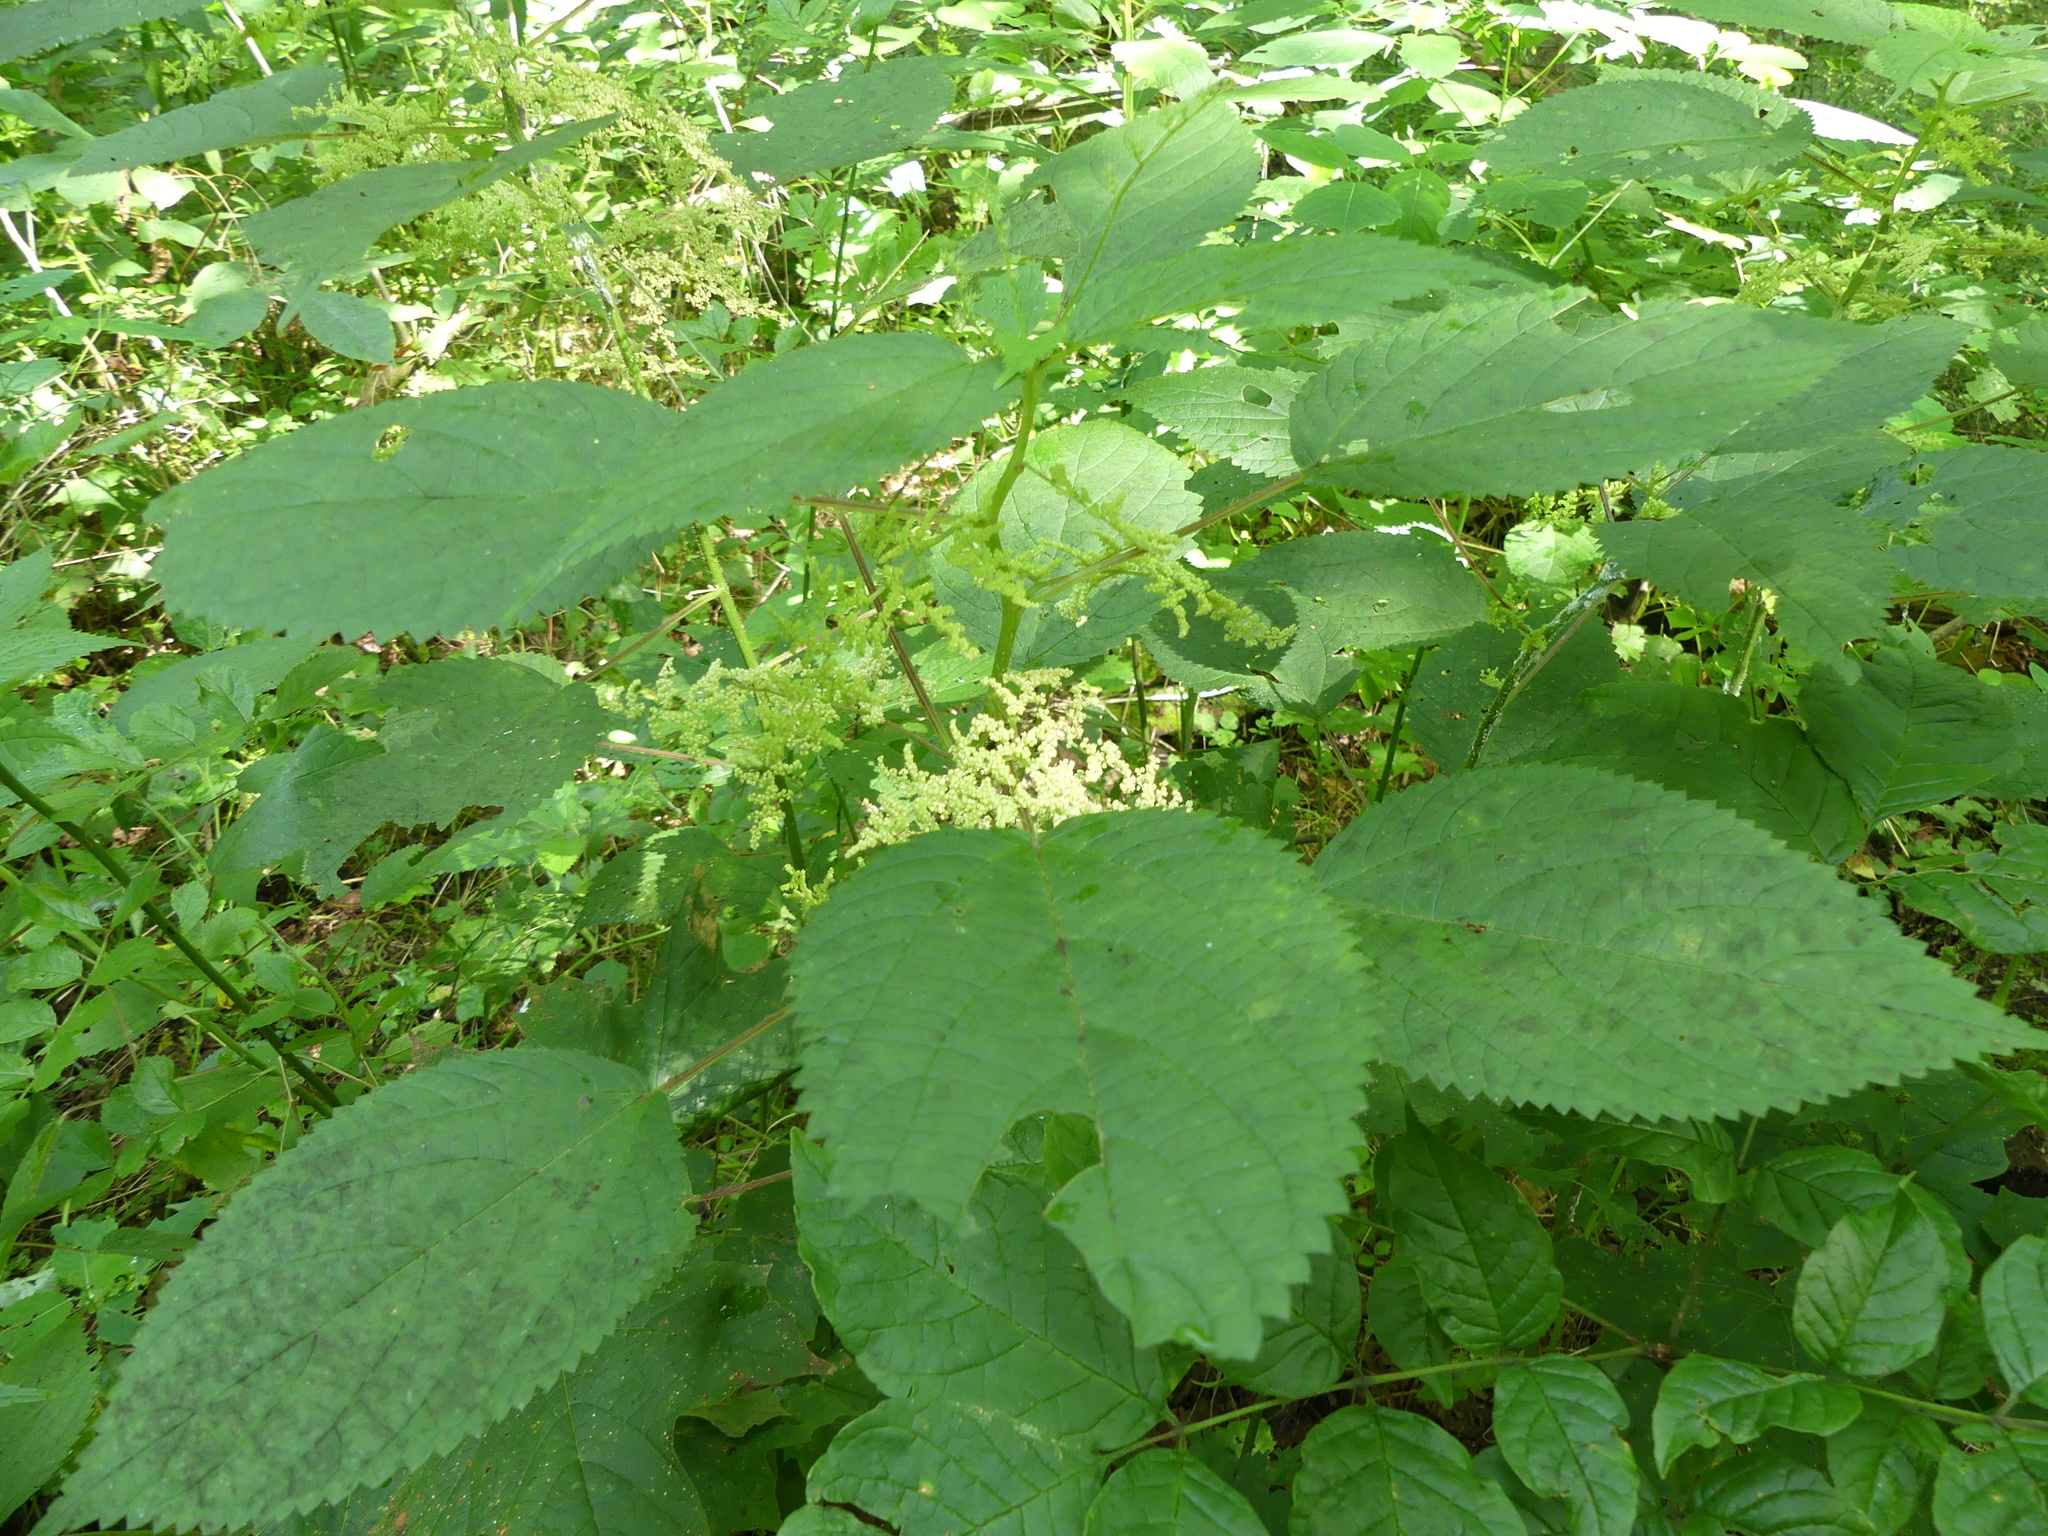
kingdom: Plantae
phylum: Tracheophyta
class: Magnoliopsida
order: Rosales
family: Urticaceae
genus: Laportea
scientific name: Laportea canadensis
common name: Canada nettle
